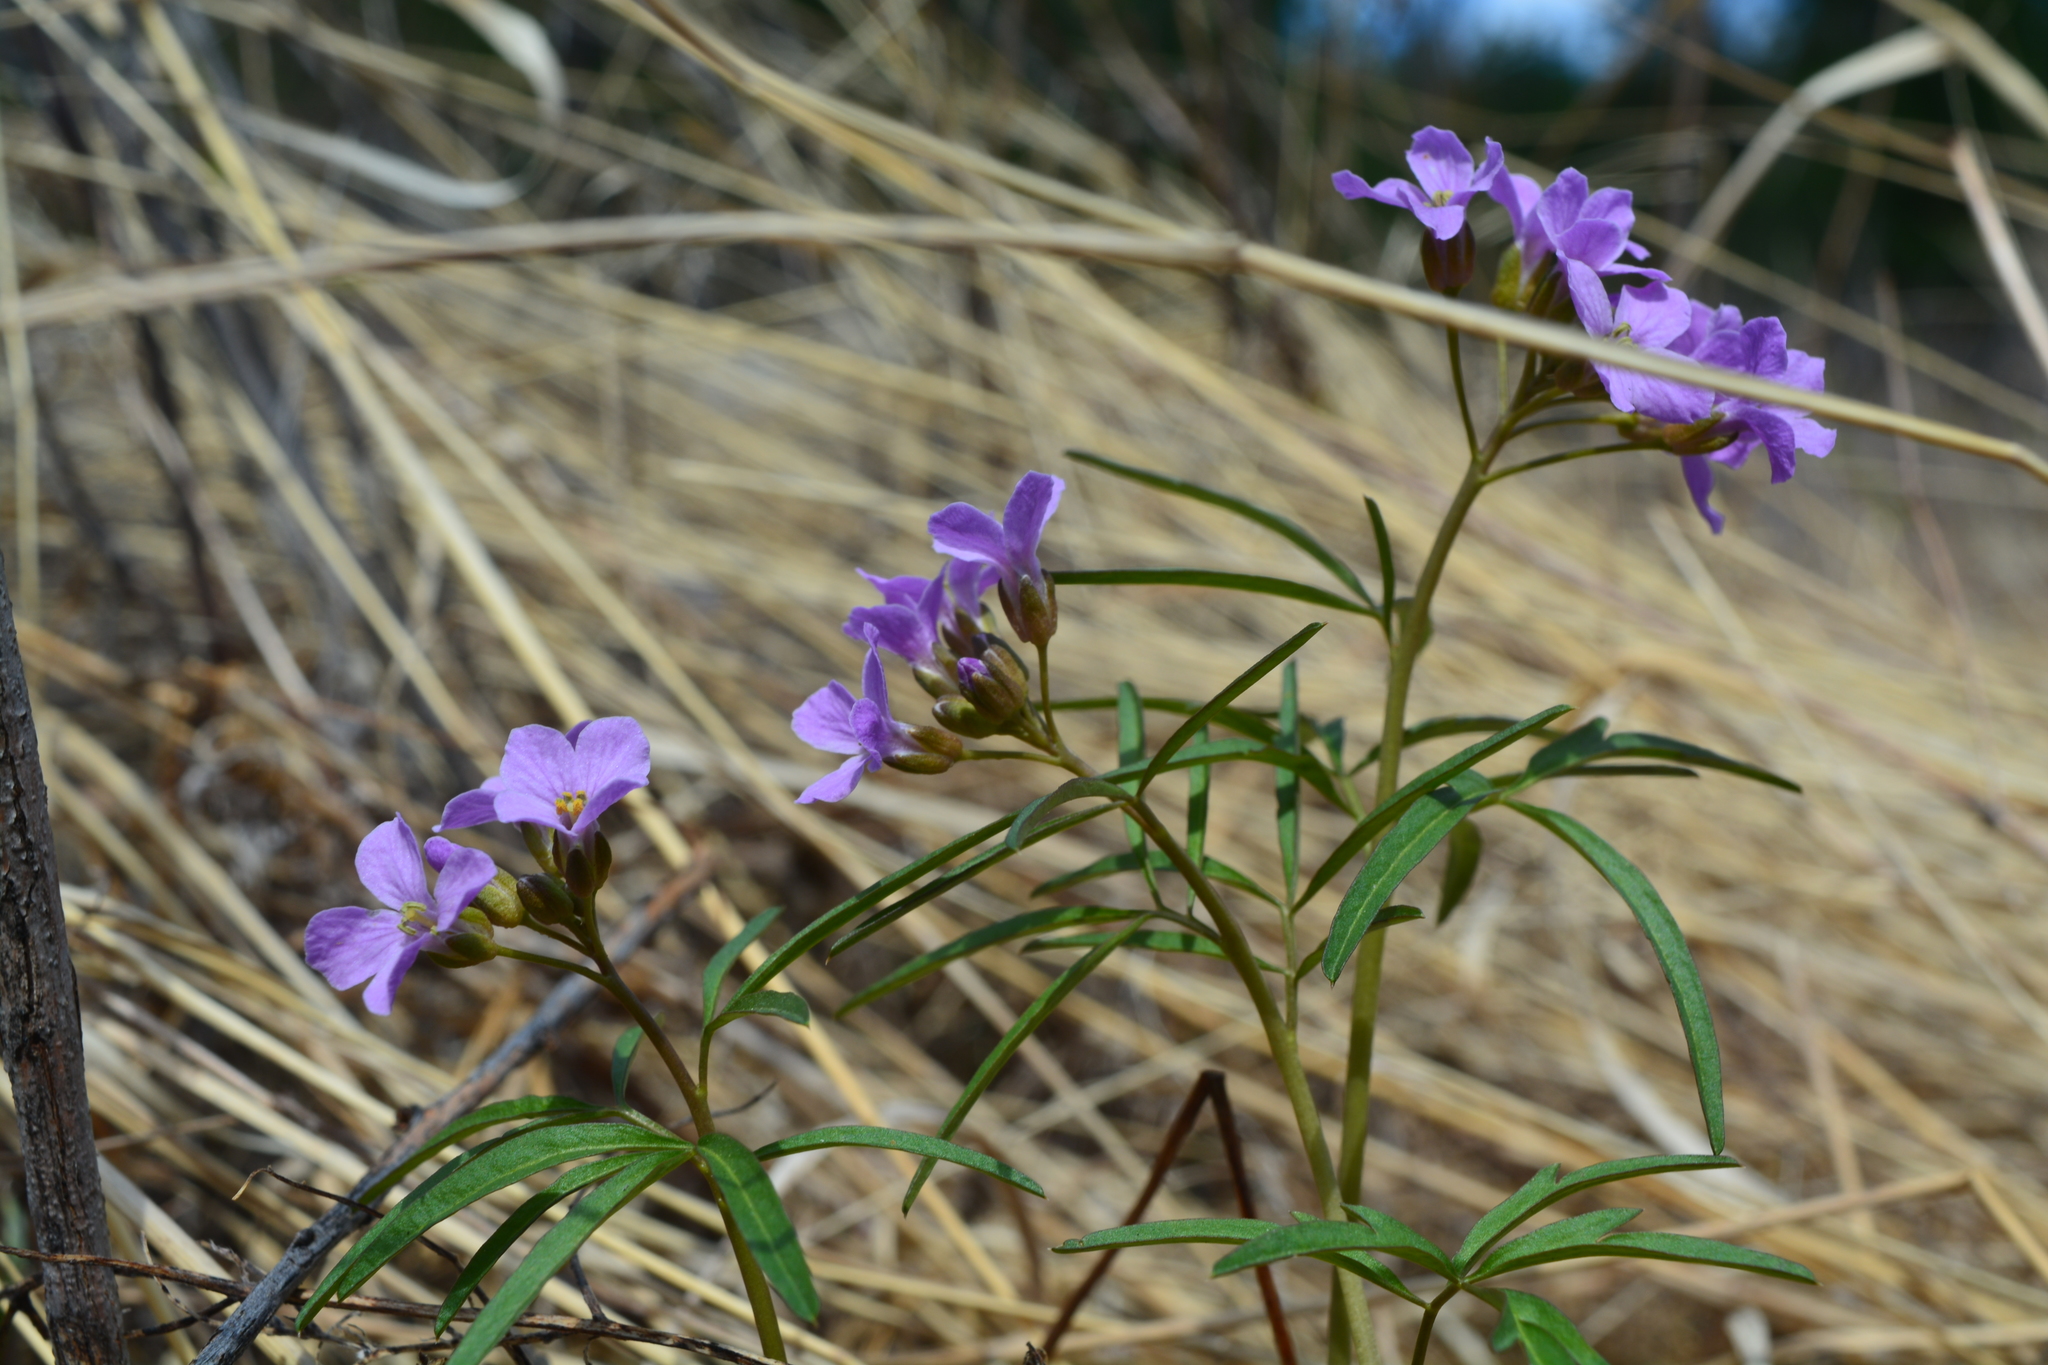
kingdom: Plantae
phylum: Tracheophyta
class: Magnoliopsida
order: Brassicales
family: Brassicaceae
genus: Cardamine
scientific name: Cardamine trifida
